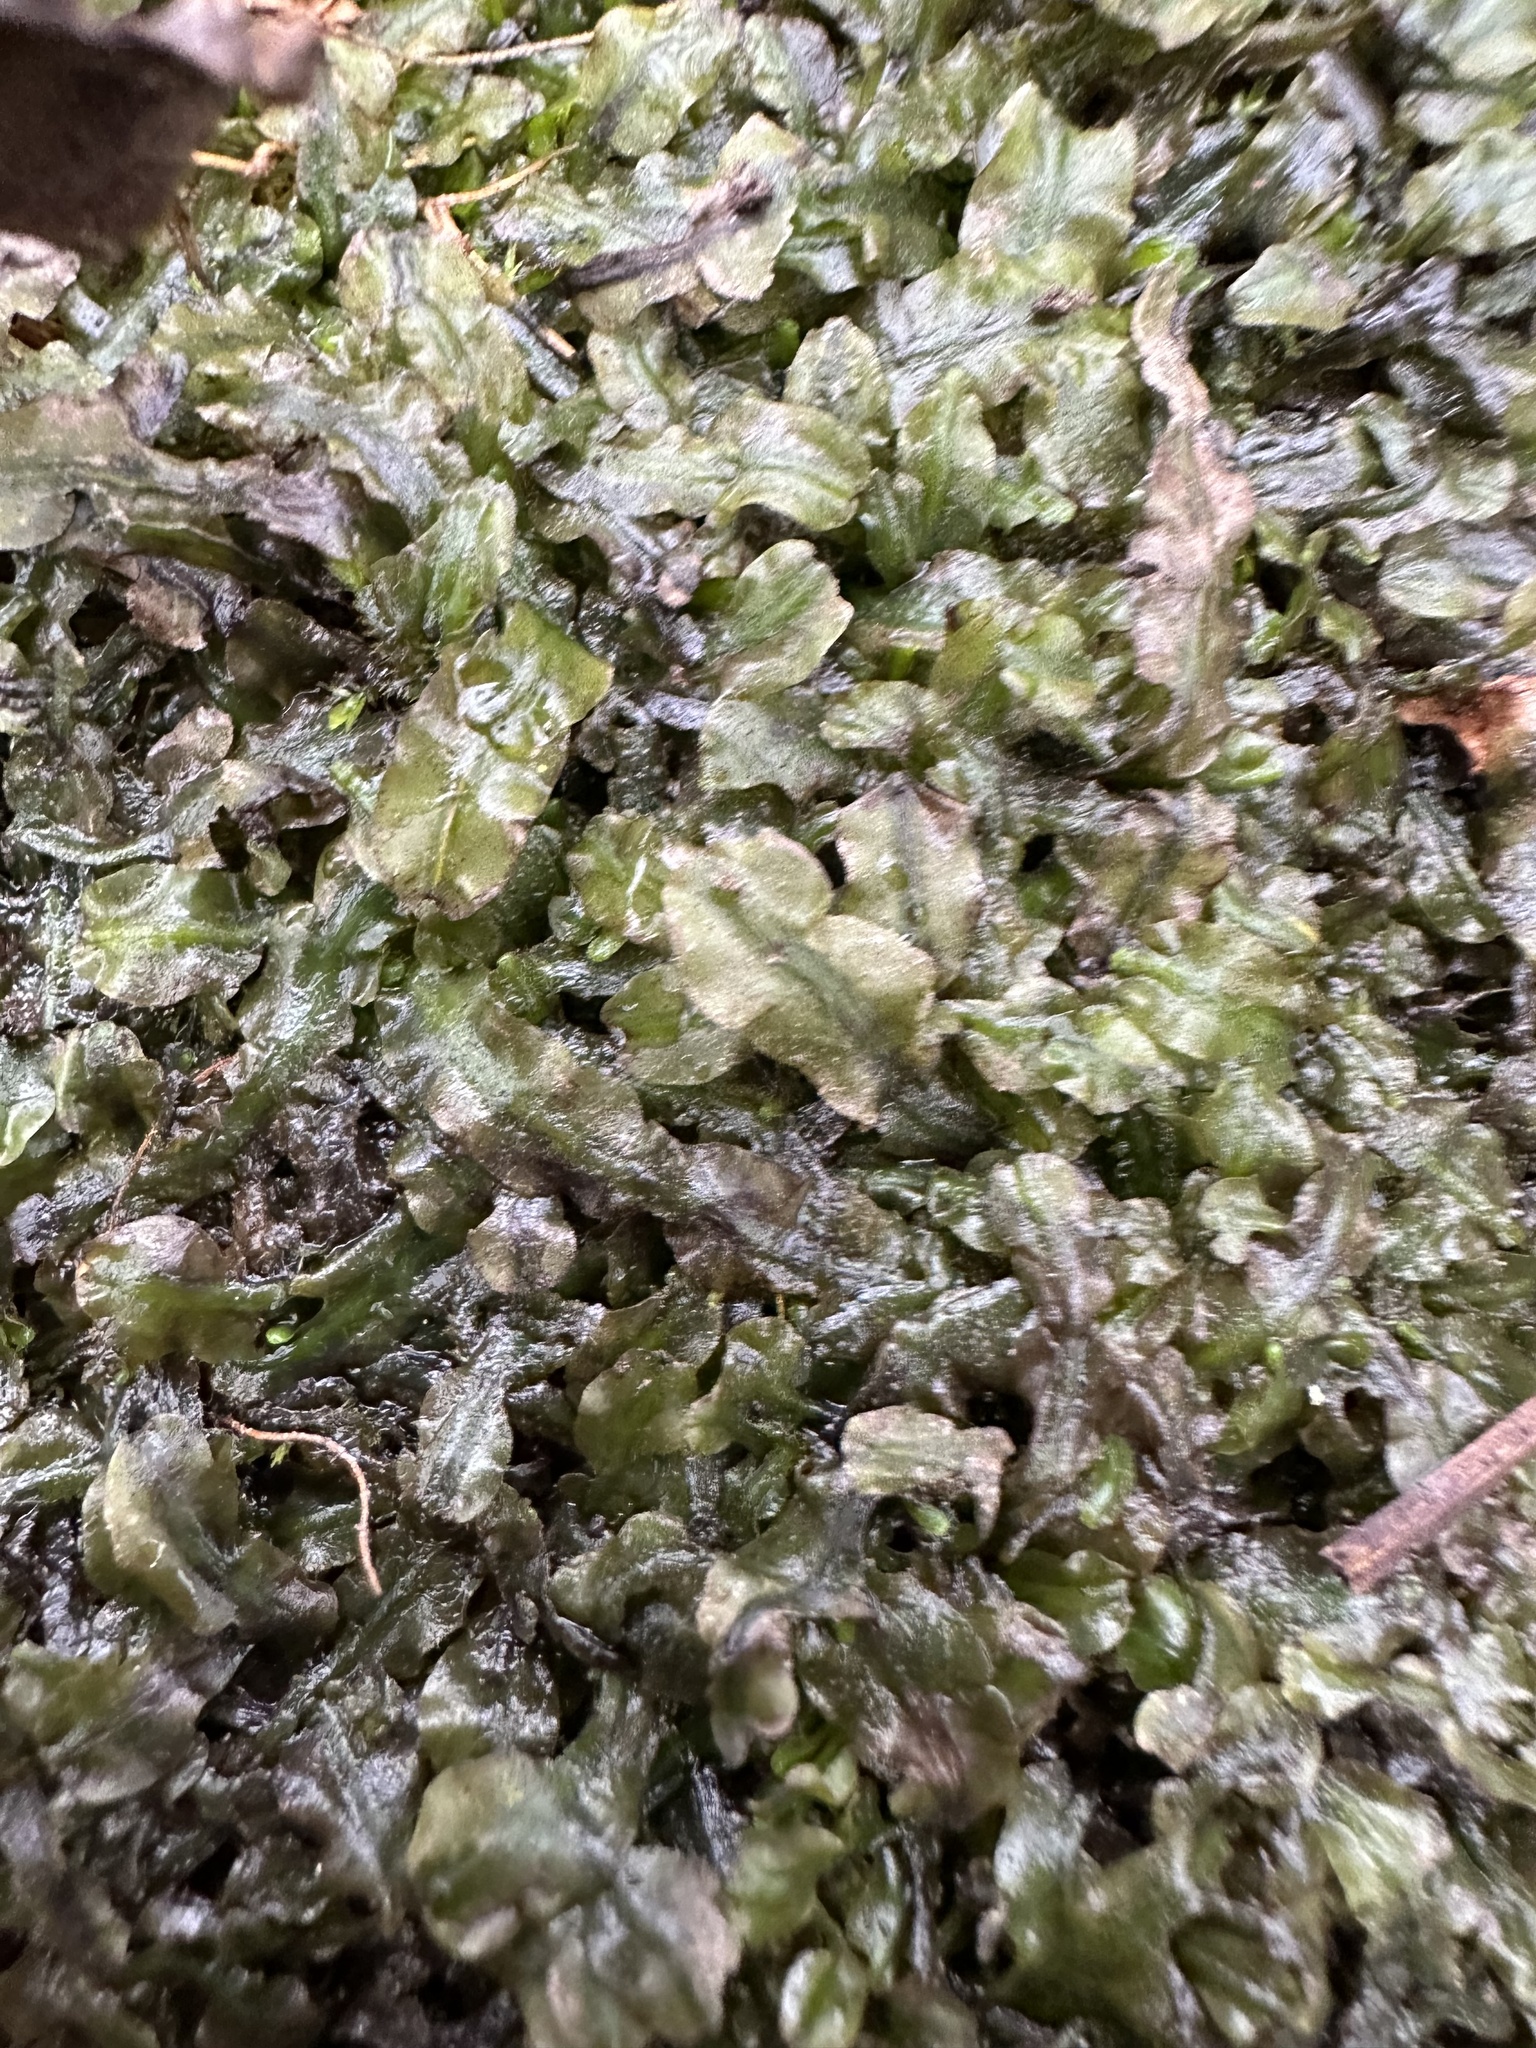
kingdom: Plantae
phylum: Marchantiophyta
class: Jungermanniopsida
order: Pallaviciniales
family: Pallaviciniaceae
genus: Pallavicinia
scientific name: Pallavicinia lyellii
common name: Veilwort
